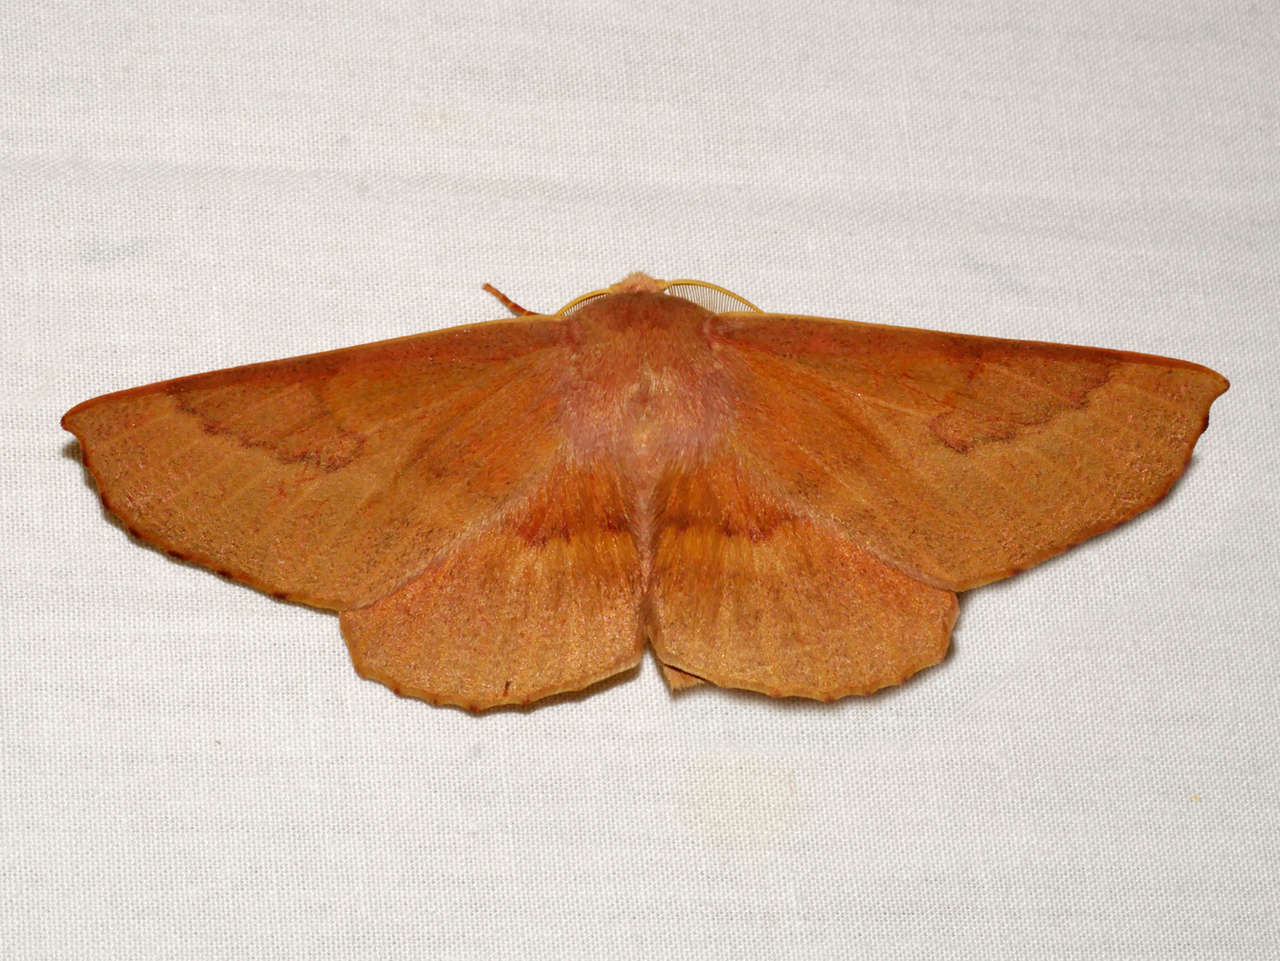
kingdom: Animalia
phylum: Arthropoda
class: Insecta
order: Lepidoptera
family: Geometridae
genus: Monoctenia
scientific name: Monoctenia falernaria
